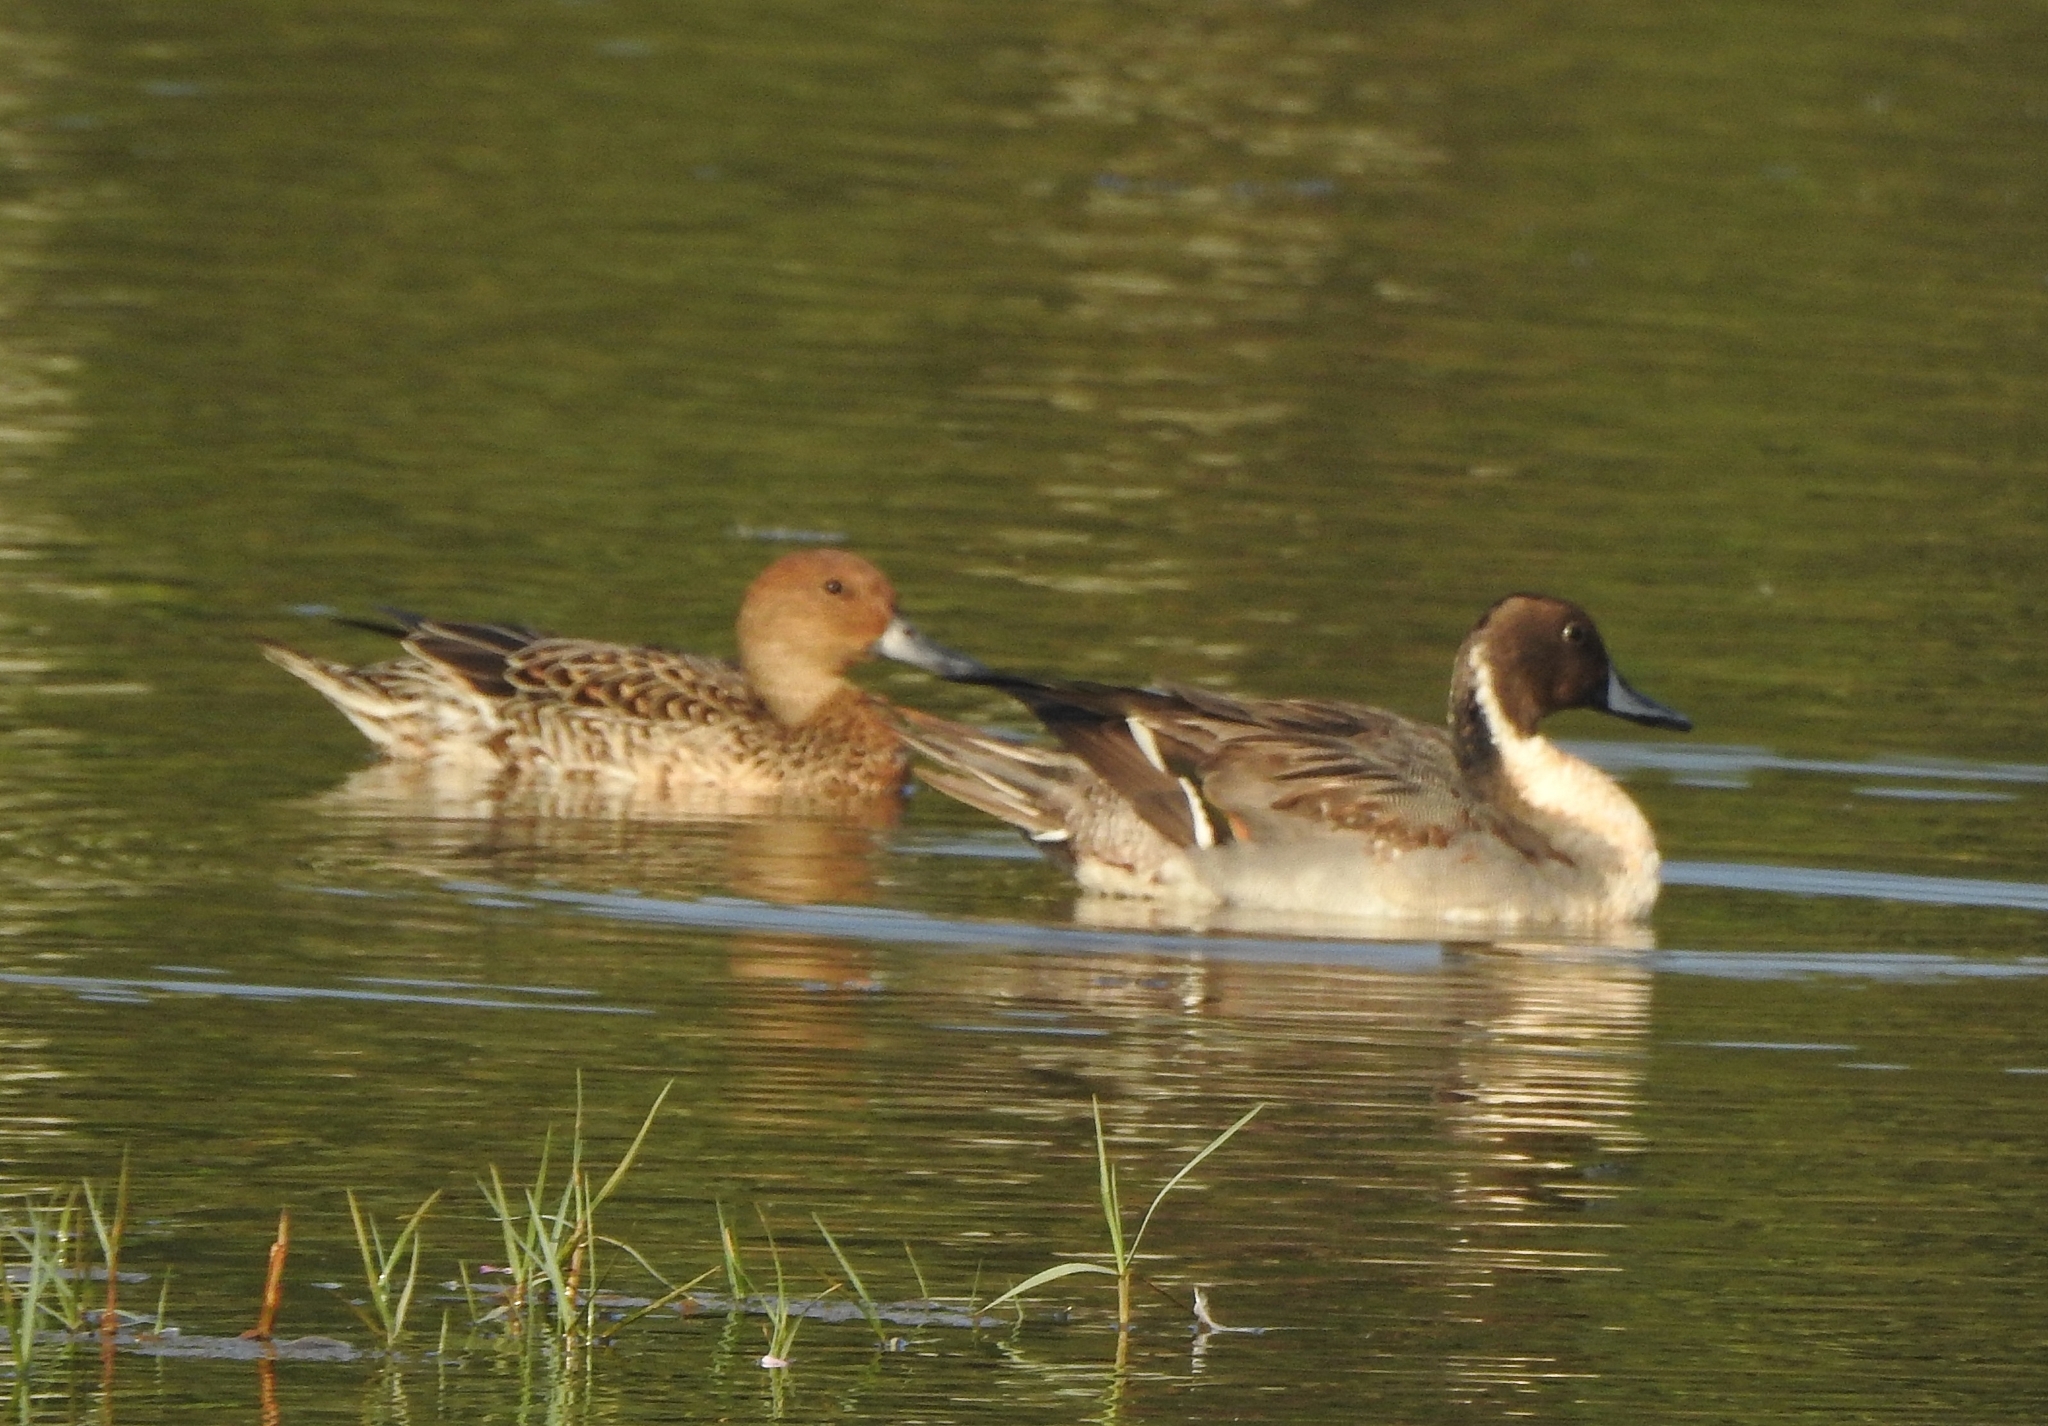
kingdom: Animalia
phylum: Chordata
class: Aves
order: Anseriformes
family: Anatidae
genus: Anas
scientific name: Anas acuta
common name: Northern pintail
